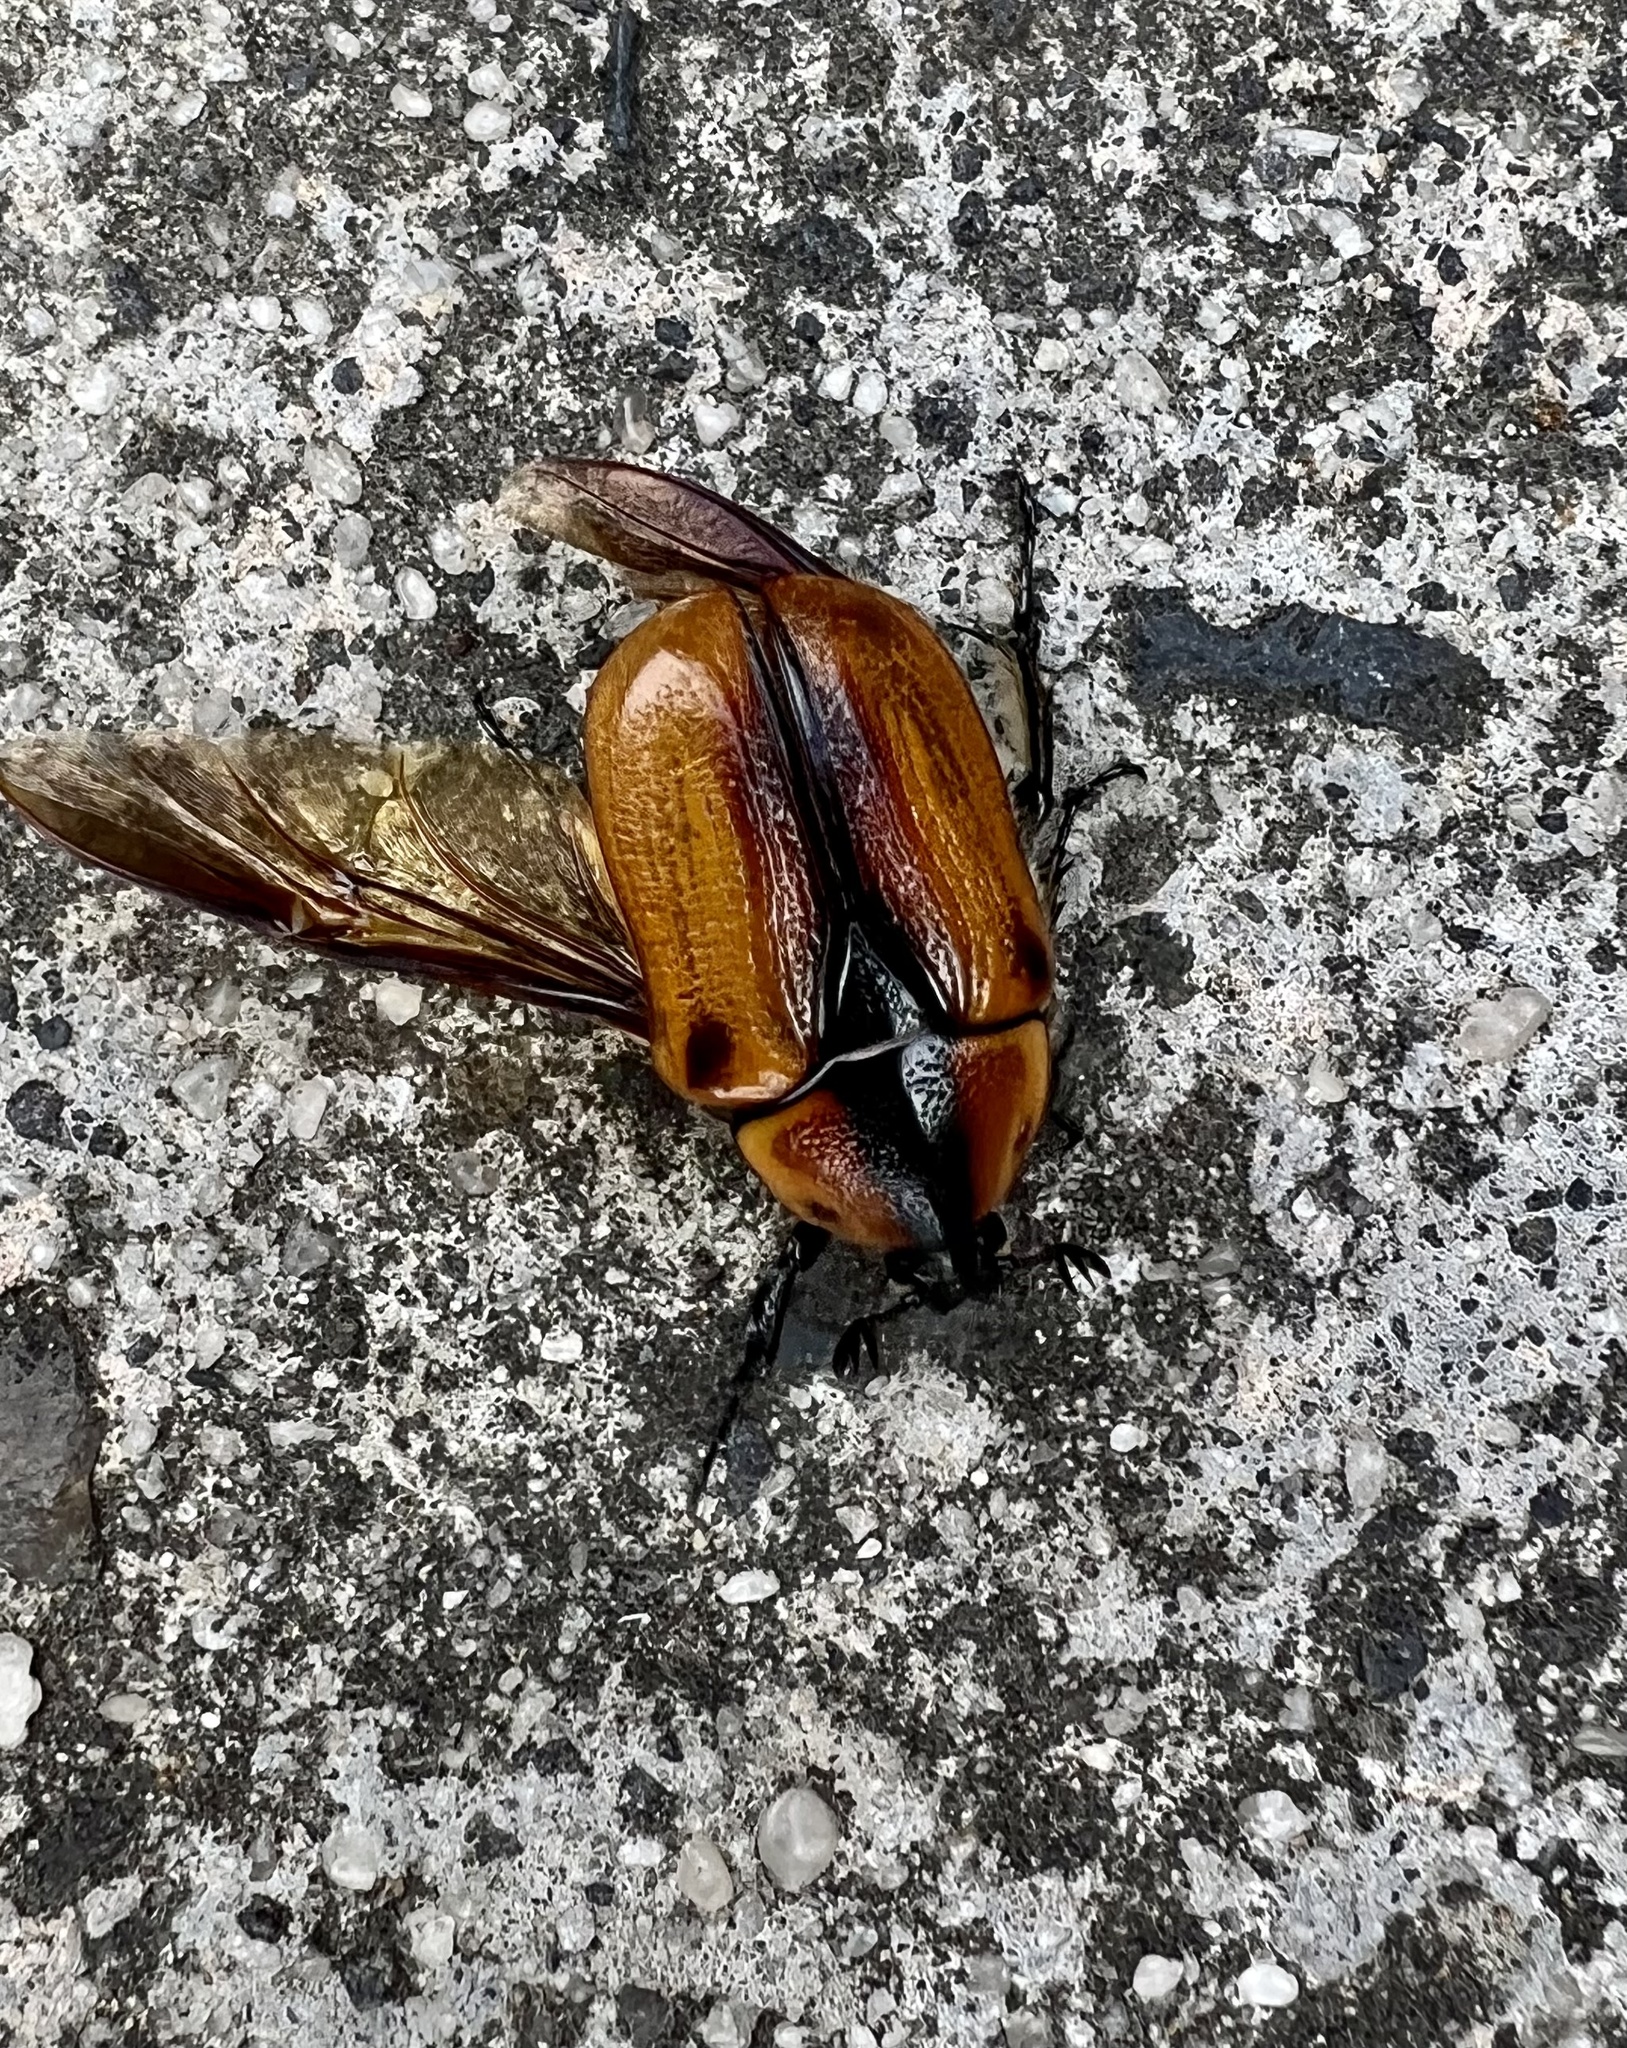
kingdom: Animalia
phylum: Arthropoda
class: Insecta
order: Coleoptera
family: Scarabaeidae
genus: Chondropyga
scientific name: Chondropyga dorsalis
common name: Cowboy beetle
